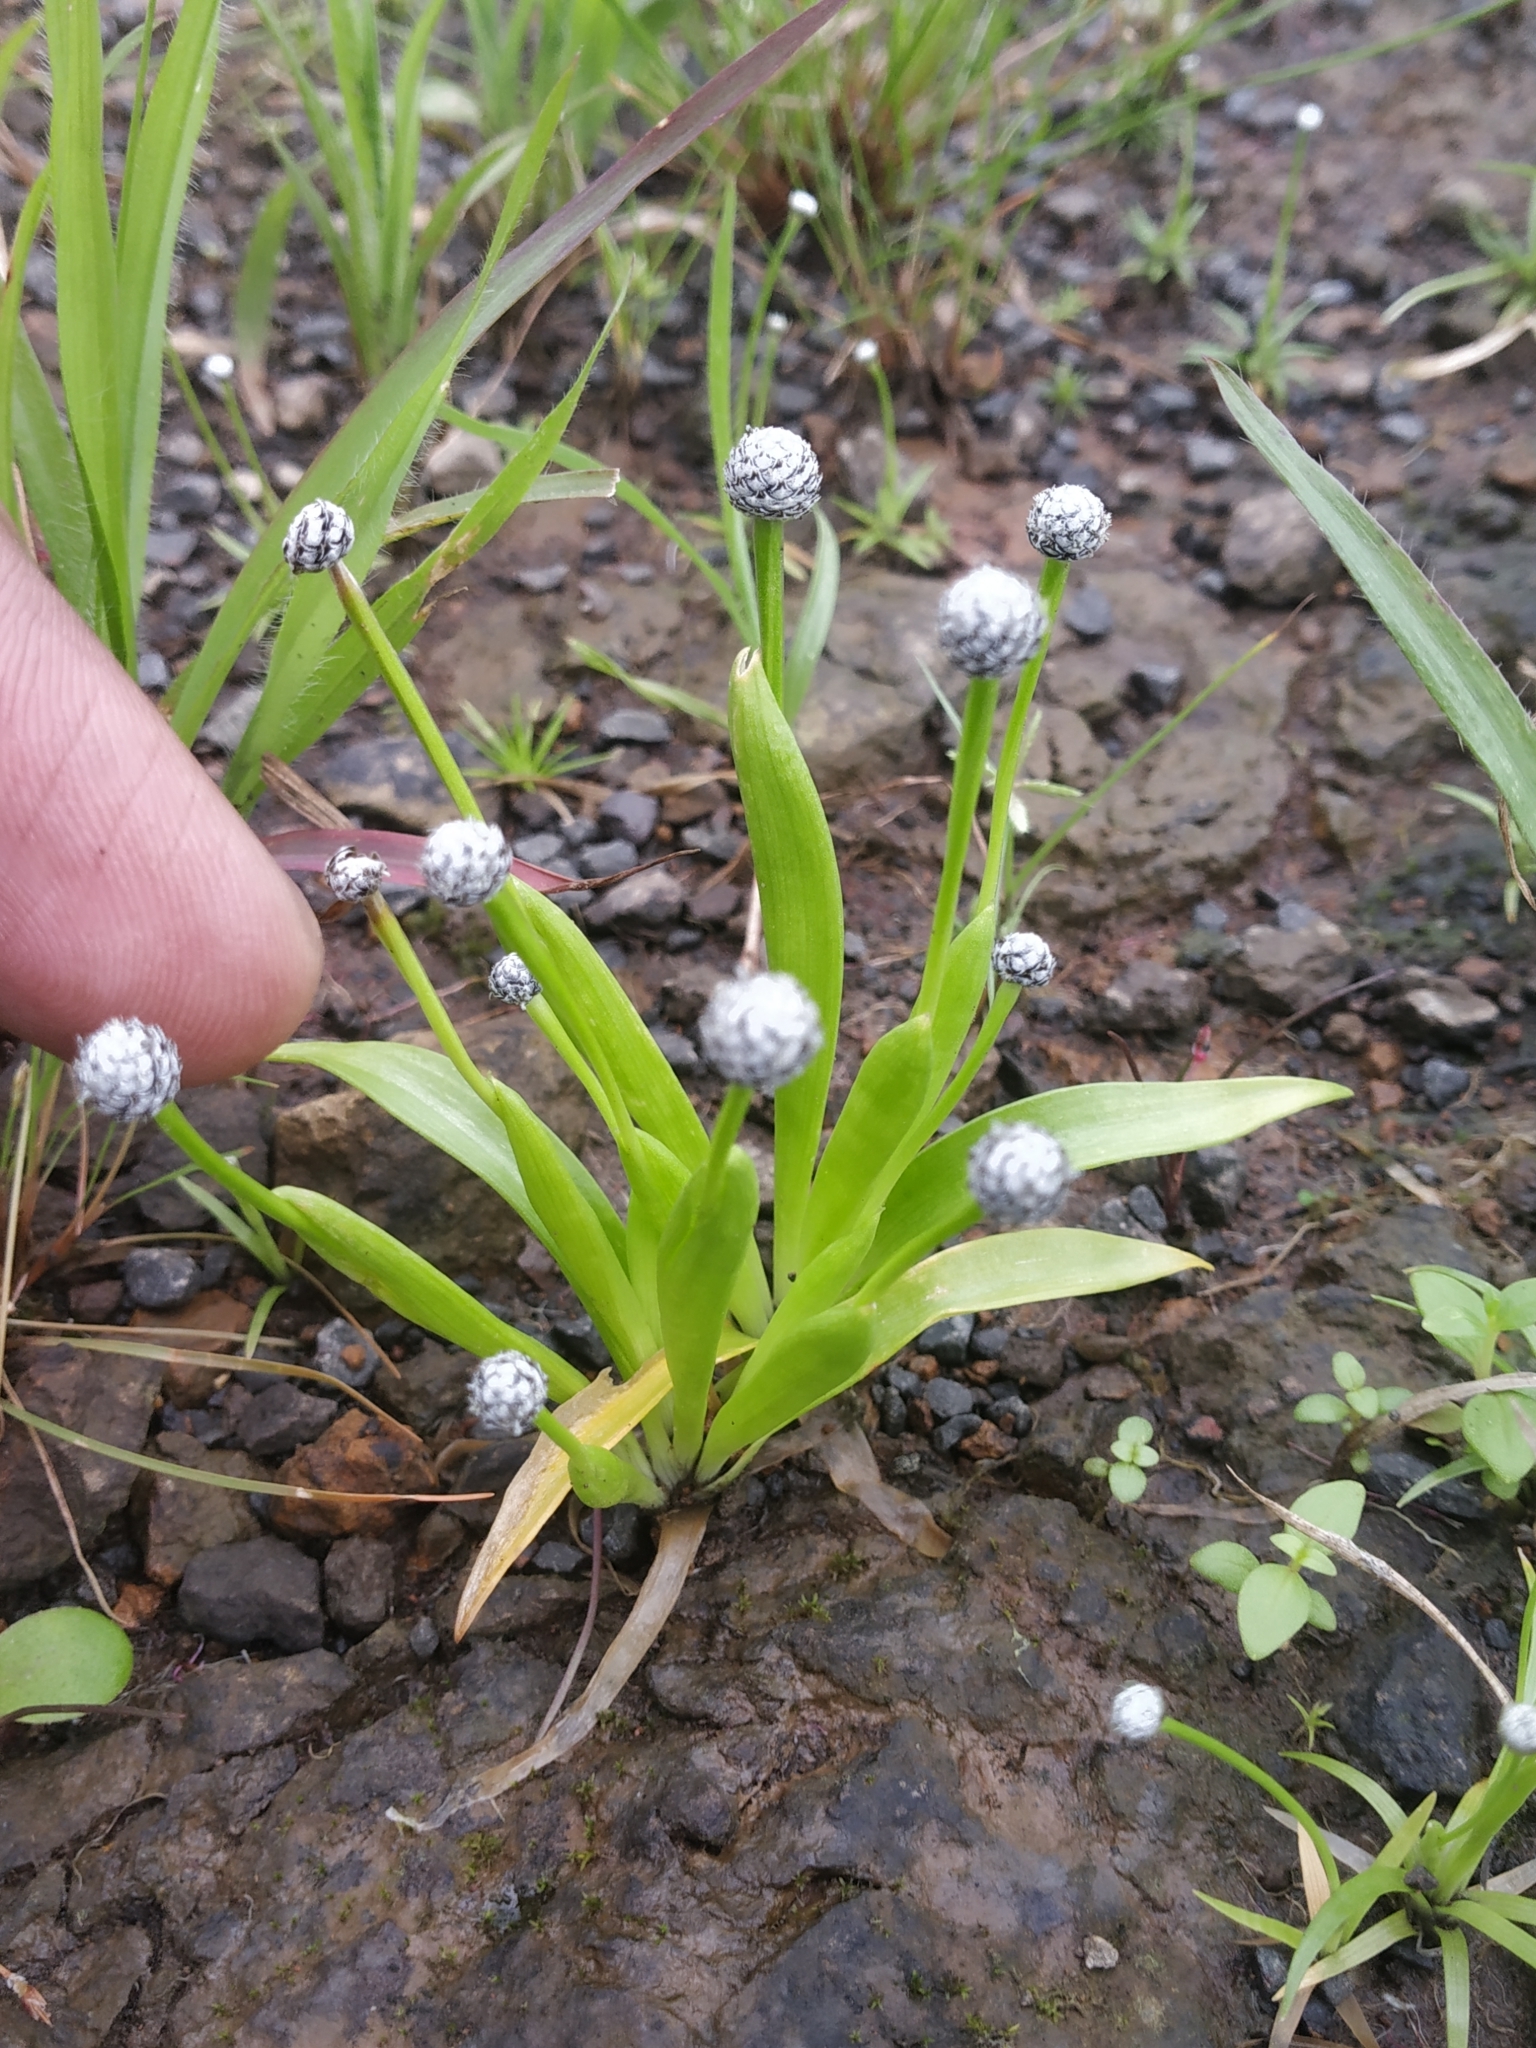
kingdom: Plantae
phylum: Tracheophyta
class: Liliopsida
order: Poales
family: Eriocaulaceae
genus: Eriocaulon
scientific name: Eriocaulon heterolepis
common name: Buttonhead pipewort
